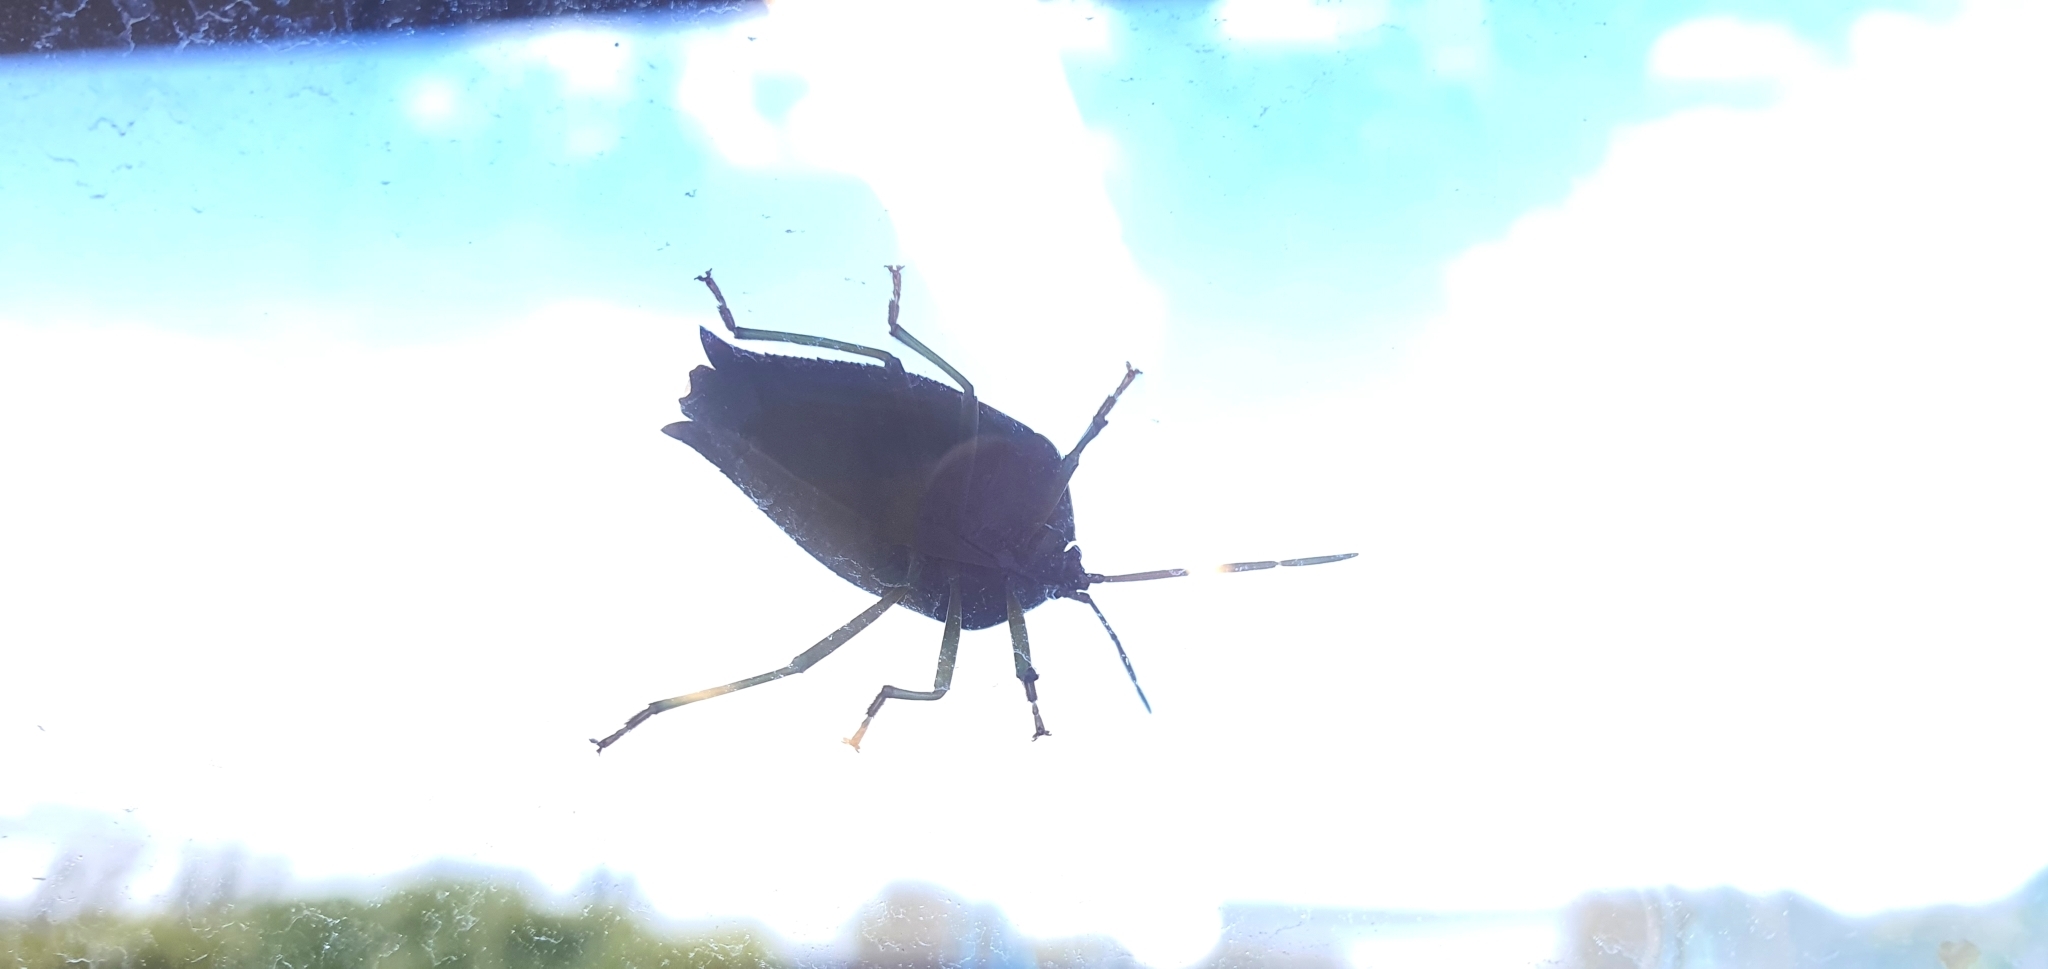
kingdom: Animalia
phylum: Arthropoda
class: Insecta
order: Hemiptera
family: Tessaratomidae
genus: Lyramorpha
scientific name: Lyramorpha rosea
